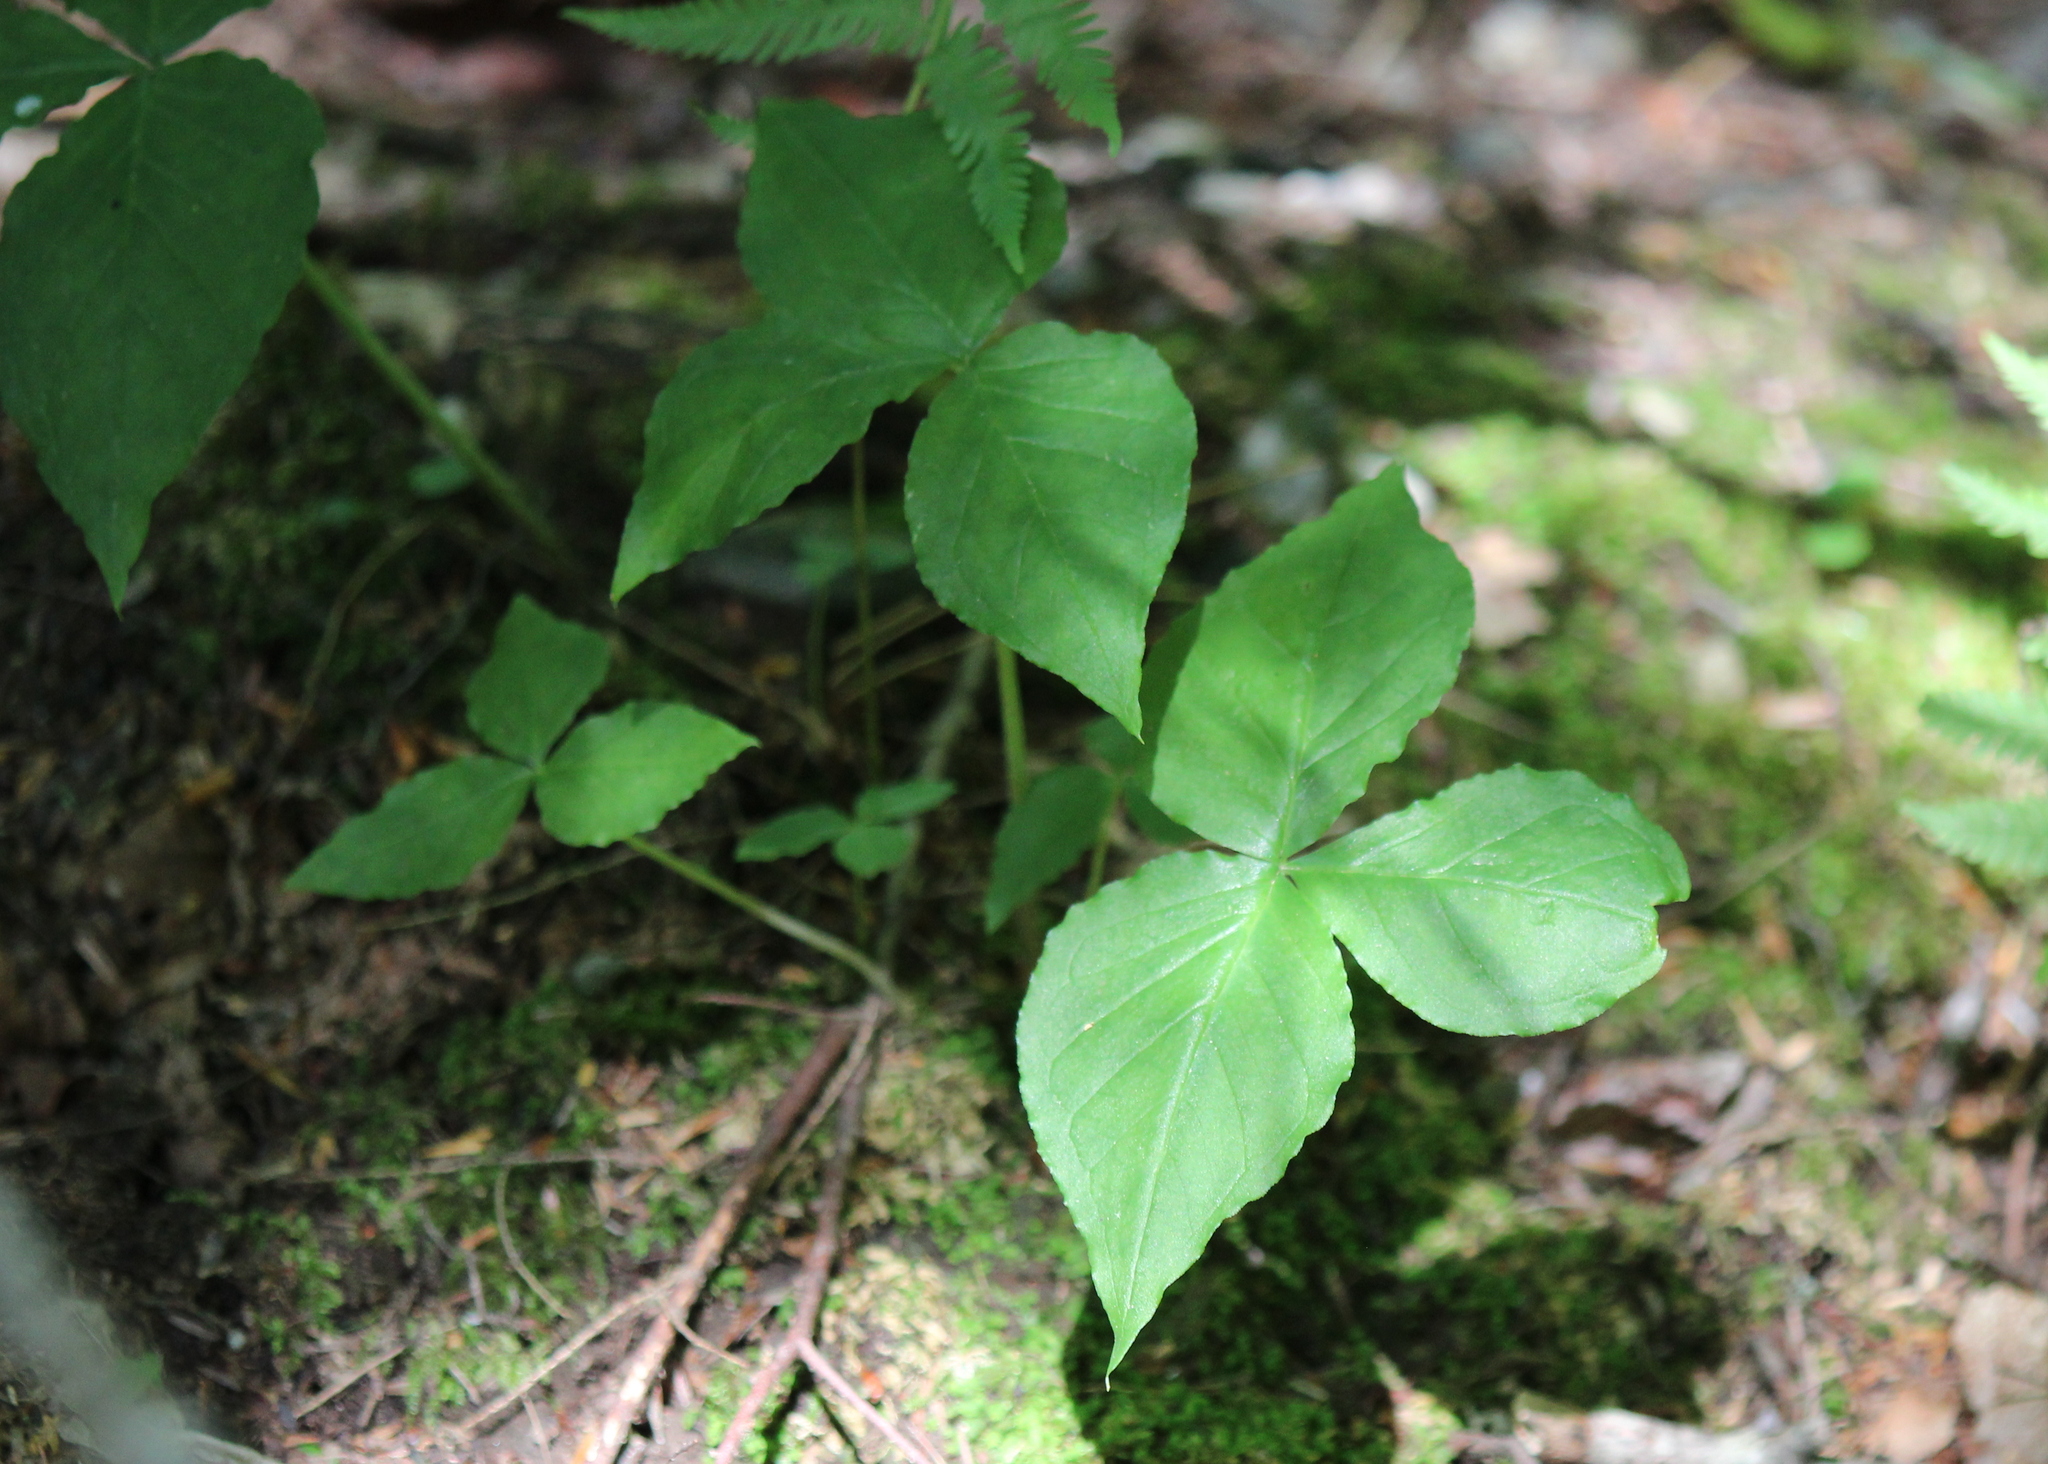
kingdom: Plantae
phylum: Tracheophyta
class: Liliopsida
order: Alismatales
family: Araceae
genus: Arisaema
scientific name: Arisaema triphyllum
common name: Jack-in-the-pulpit
